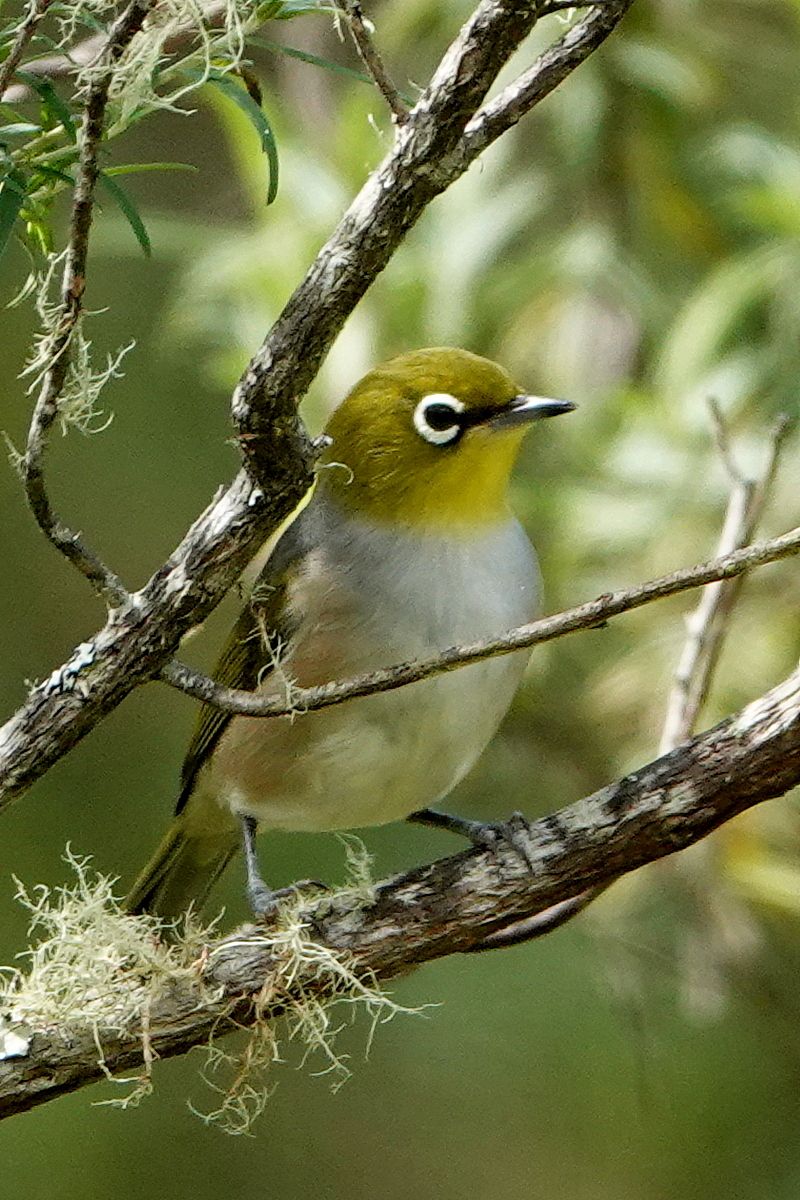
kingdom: Animalia
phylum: Chordata
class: Aves
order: Passeriformes
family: Zosteropidae
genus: Zosterops
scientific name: Zosterops lateralis
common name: Silvereye
